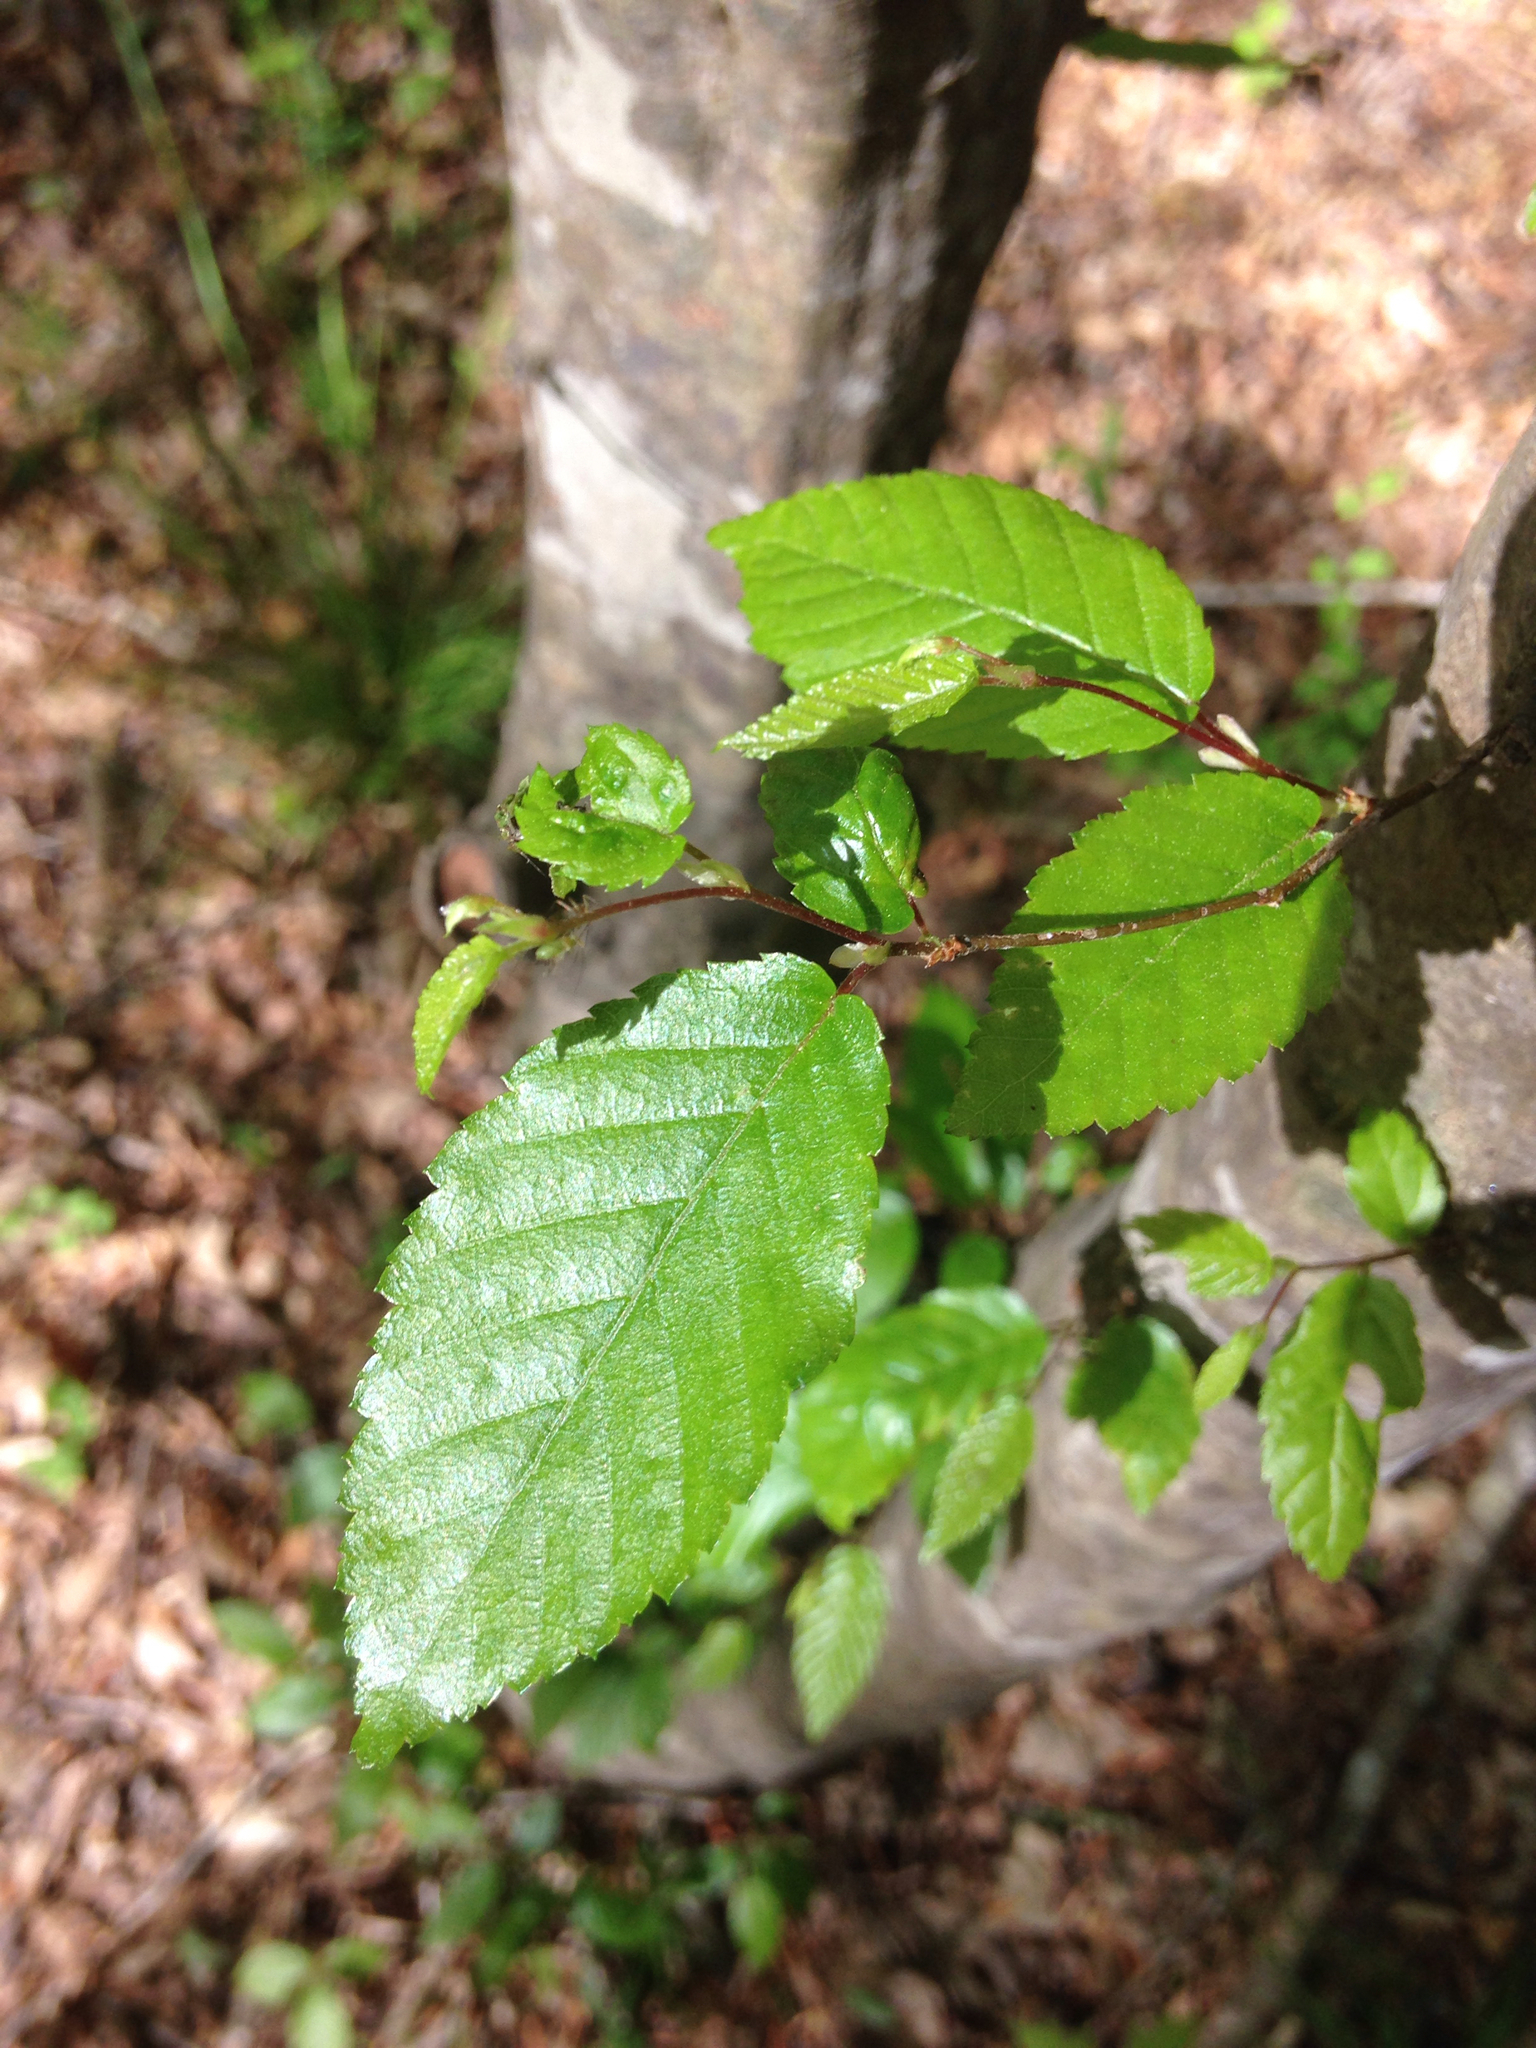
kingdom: Plantae
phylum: Tracheophyta
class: Magnoliopsida
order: Fagales
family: Betulaceae
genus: Carpinus
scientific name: Carpinus caroliniana
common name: American hornbeam
